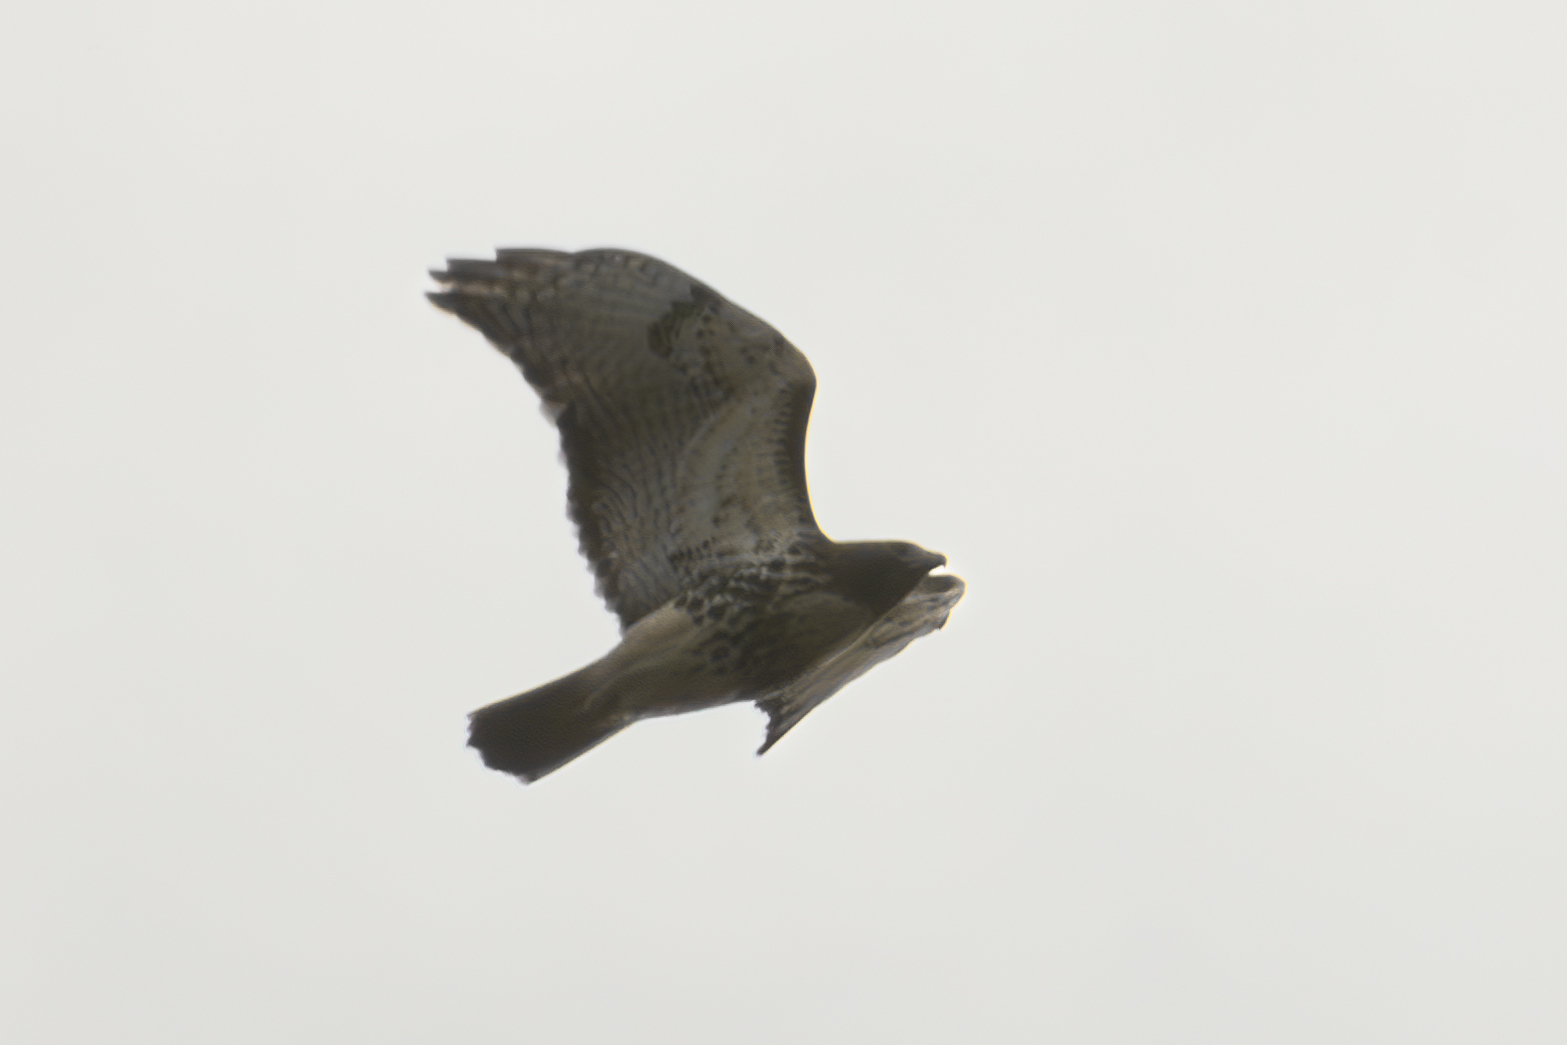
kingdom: Animalia
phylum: Chordata
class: Aves
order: Accipitriformes
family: Accipitridae
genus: Buteo
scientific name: Buteo jamaicensis
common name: Red-tailed hawk
